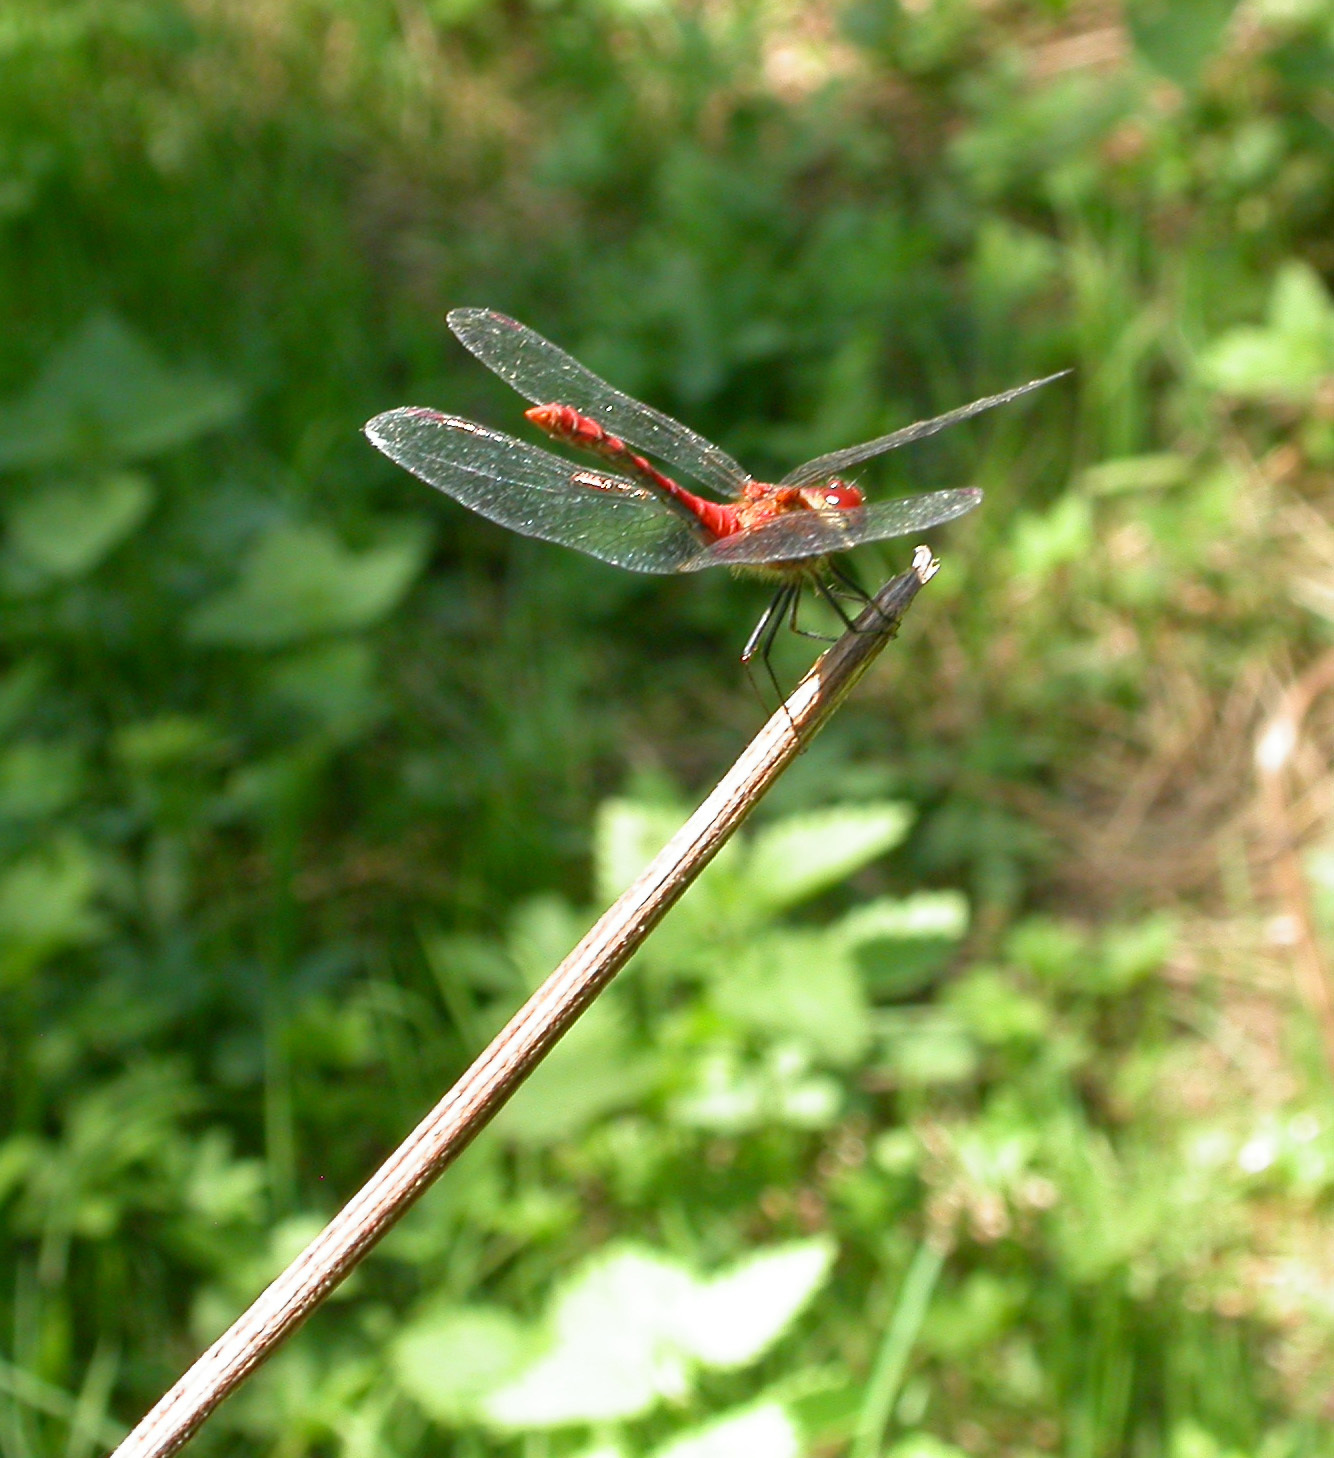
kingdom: Animalia
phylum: Arthropoda
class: Insecta
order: Odonata
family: Libellulidae
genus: Sympetrum
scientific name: Sympetrum sanguineum
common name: Ruddy darter
